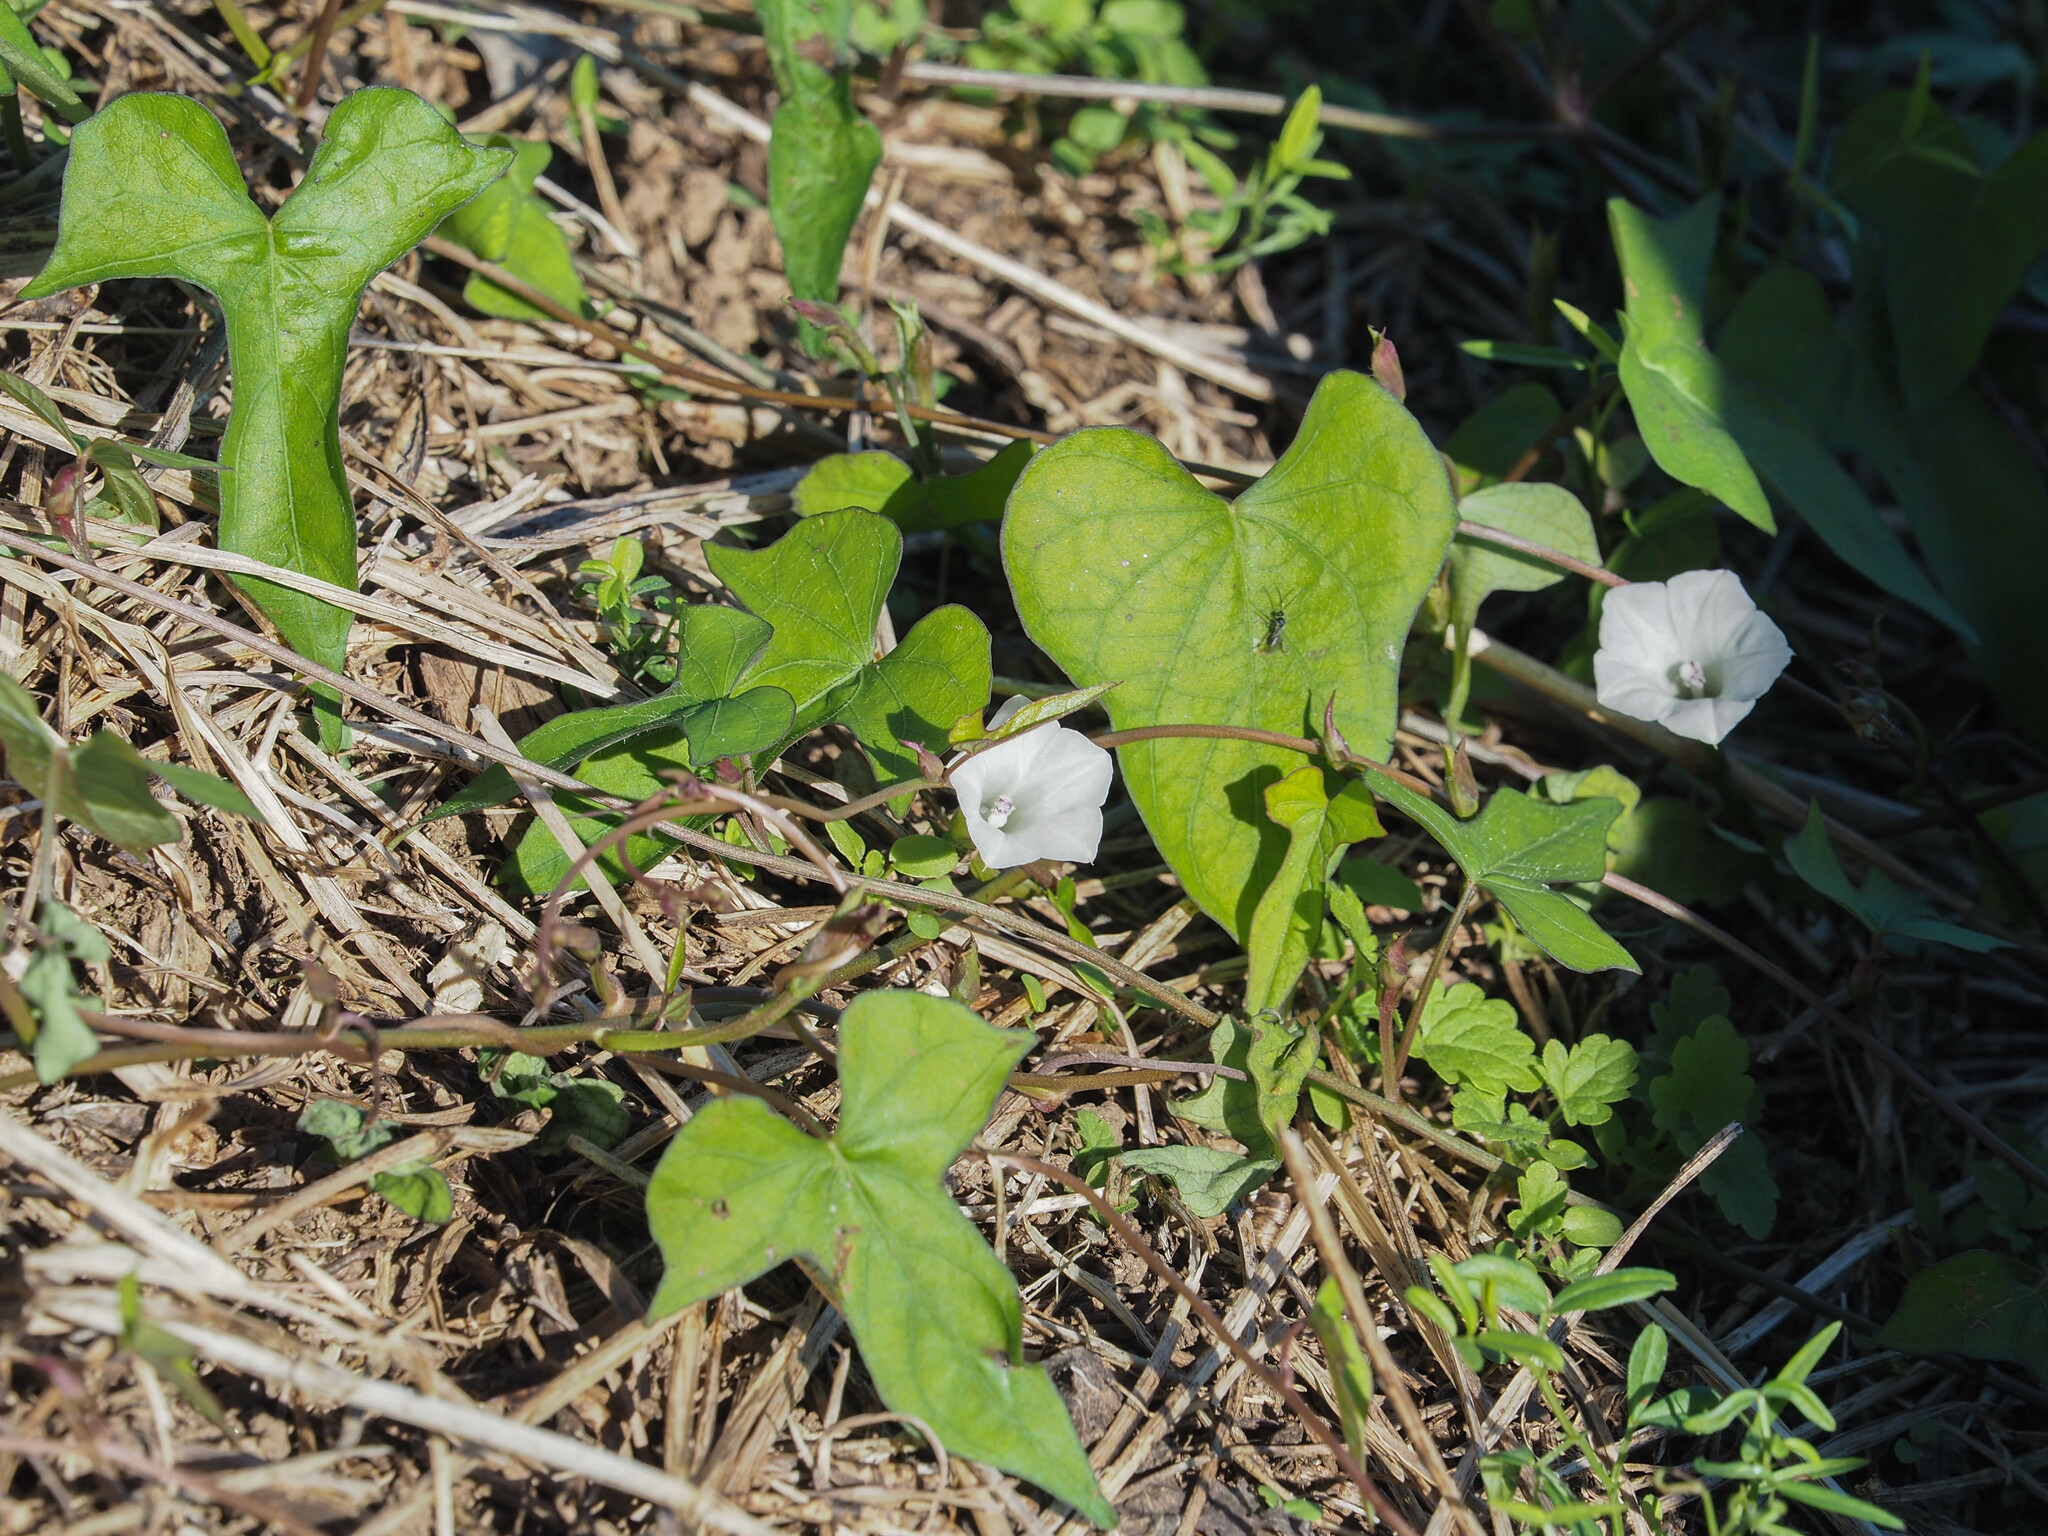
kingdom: Plantae
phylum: Tracheophyta
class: Magnoliopsida
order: Solanales
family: Convolvulaceae
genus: Ipomoea
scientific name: Ipomoea lacunosa
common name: White morning-glory
